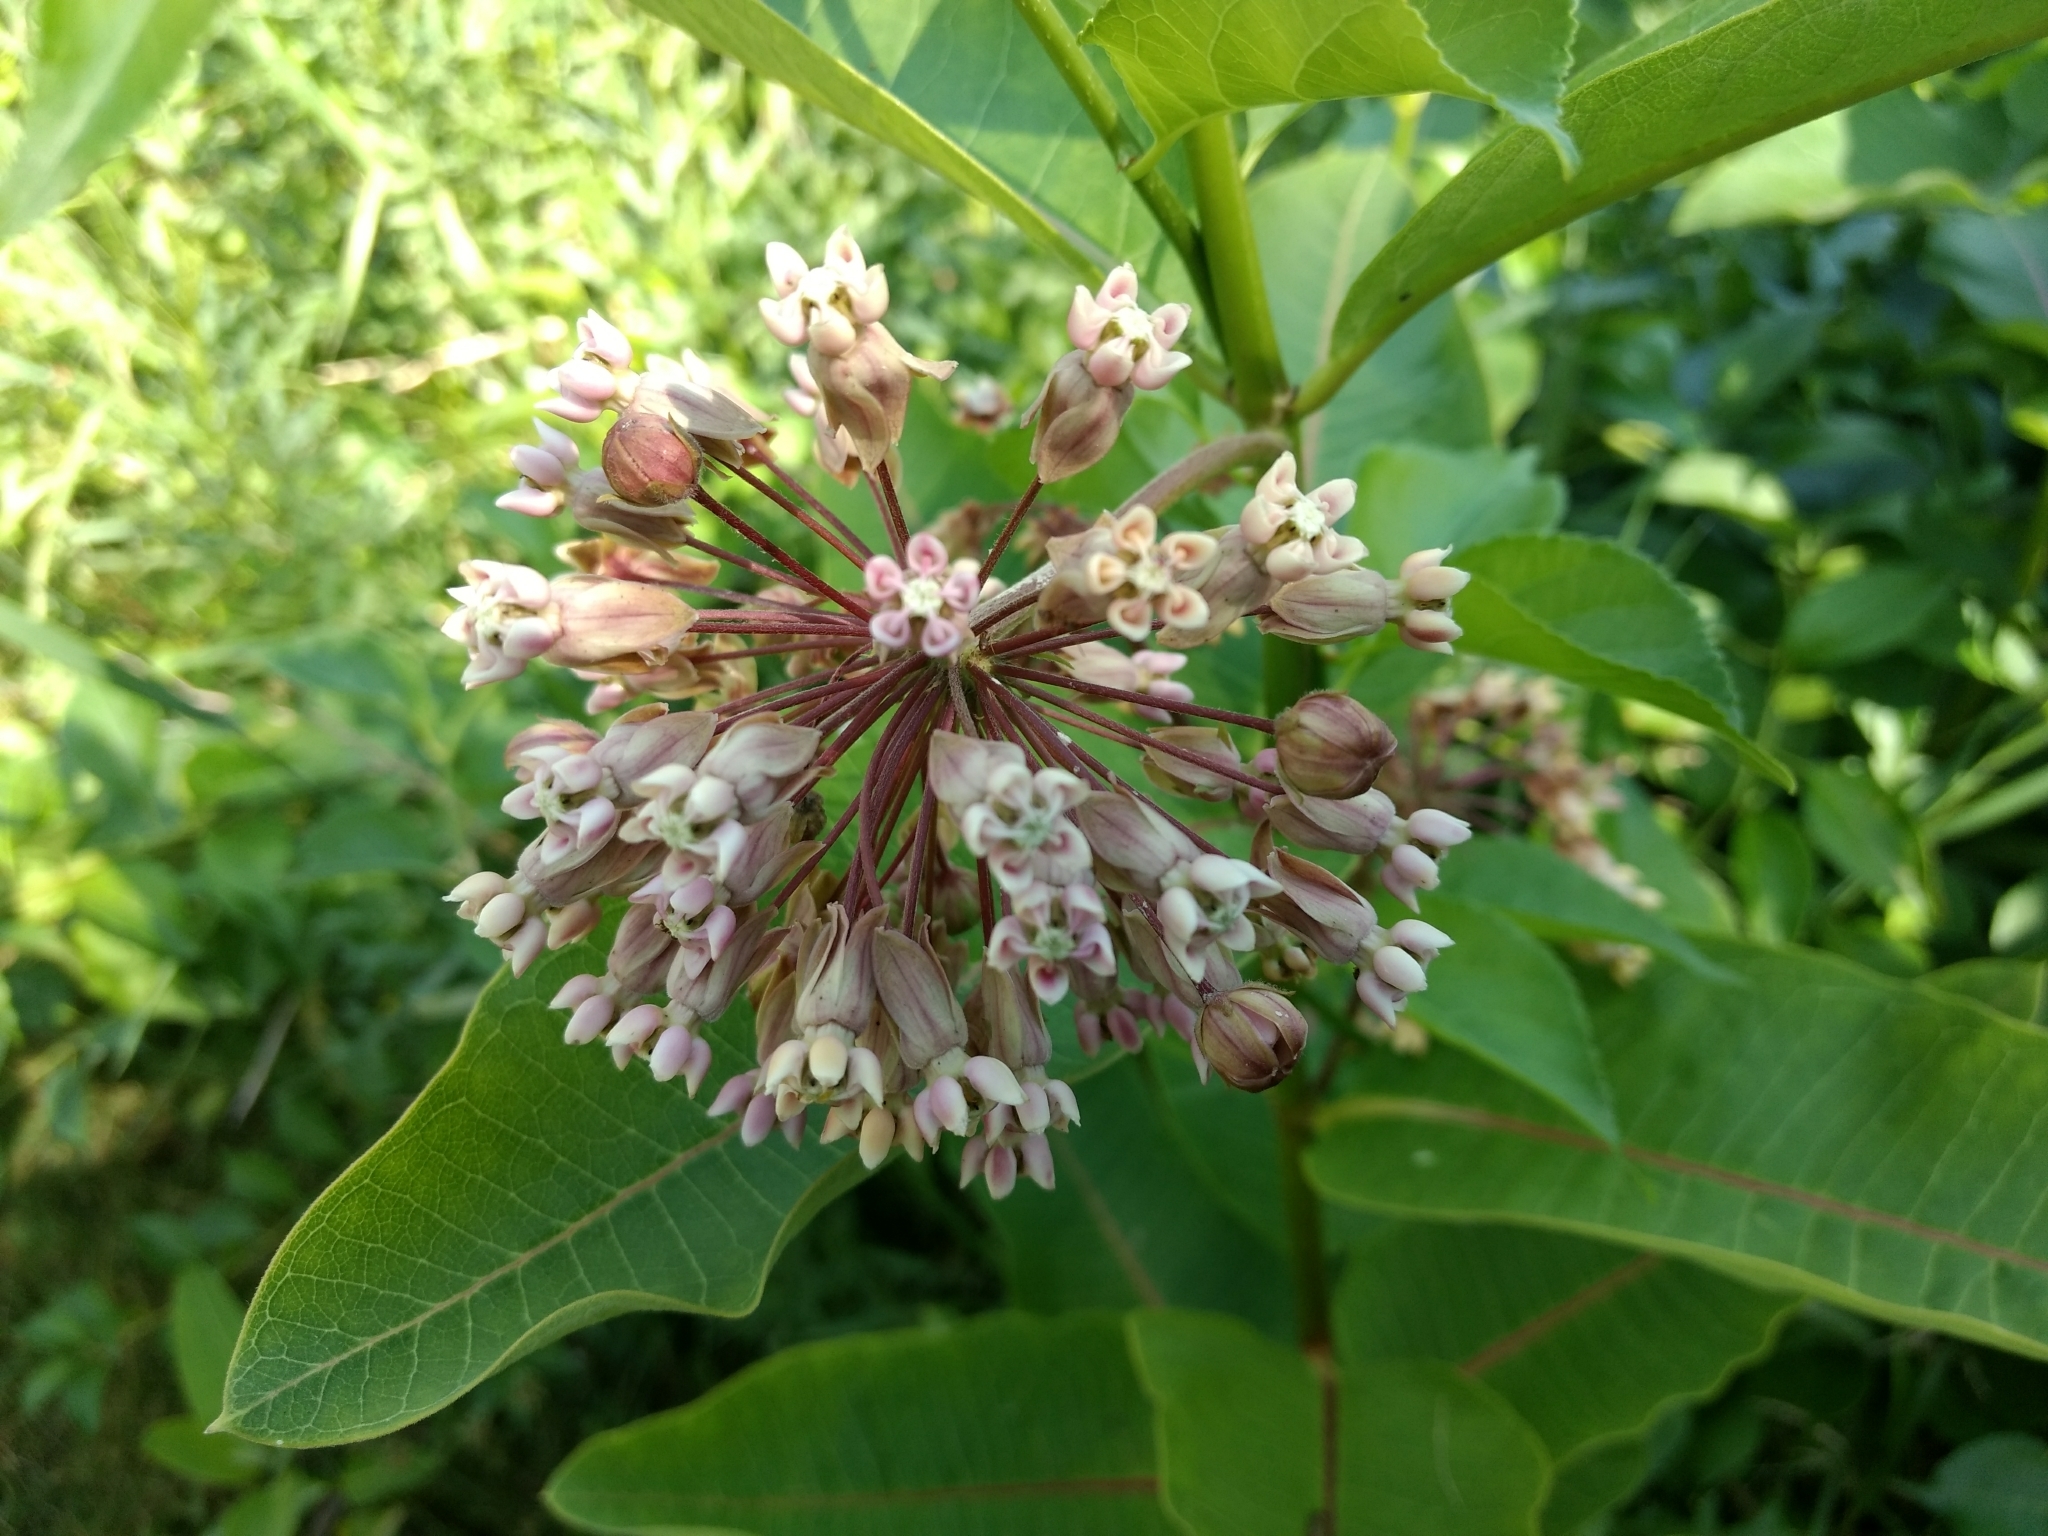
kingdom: Plantae
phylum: Tracheophyta
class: Magnoliopsida
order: Gentianales
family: Apocynaceae
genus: Asclepias
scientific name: Asclepias syriaca
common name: Common milkweed
